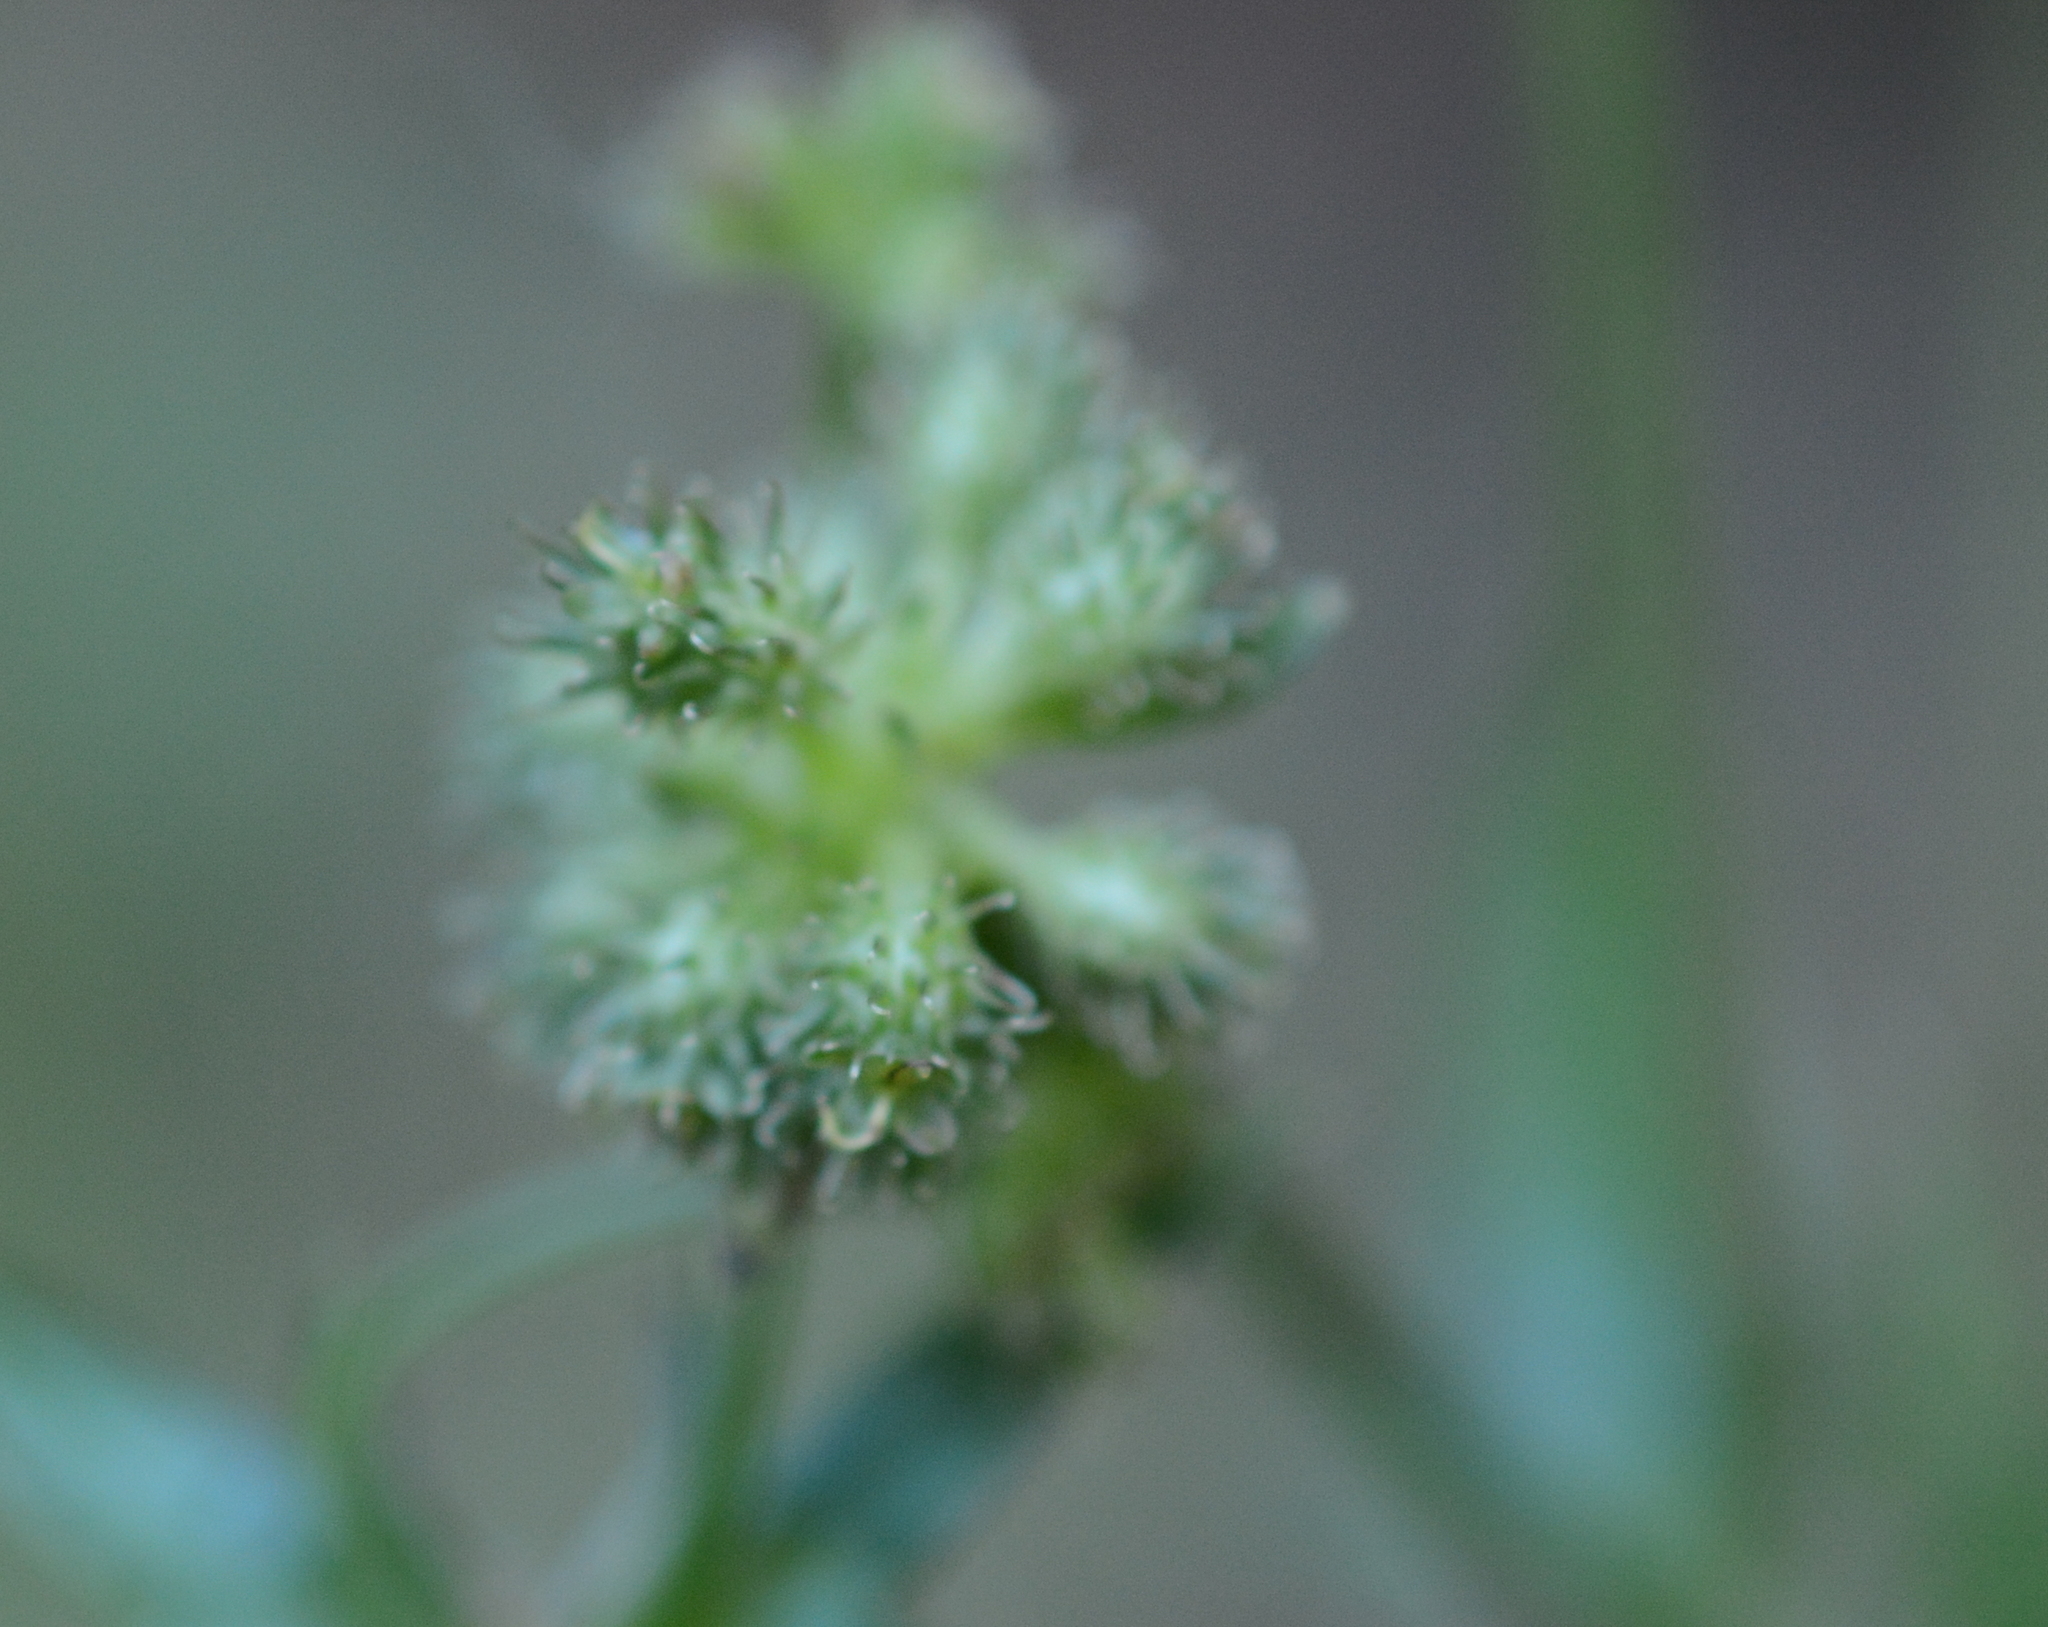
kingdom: Plantae
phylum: Tracheophyta
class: Magnoliopsida
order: Apiales
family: Apiaceae
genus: Sanicula
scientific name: Sanicula crassicaulis
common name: Western snakeroot
